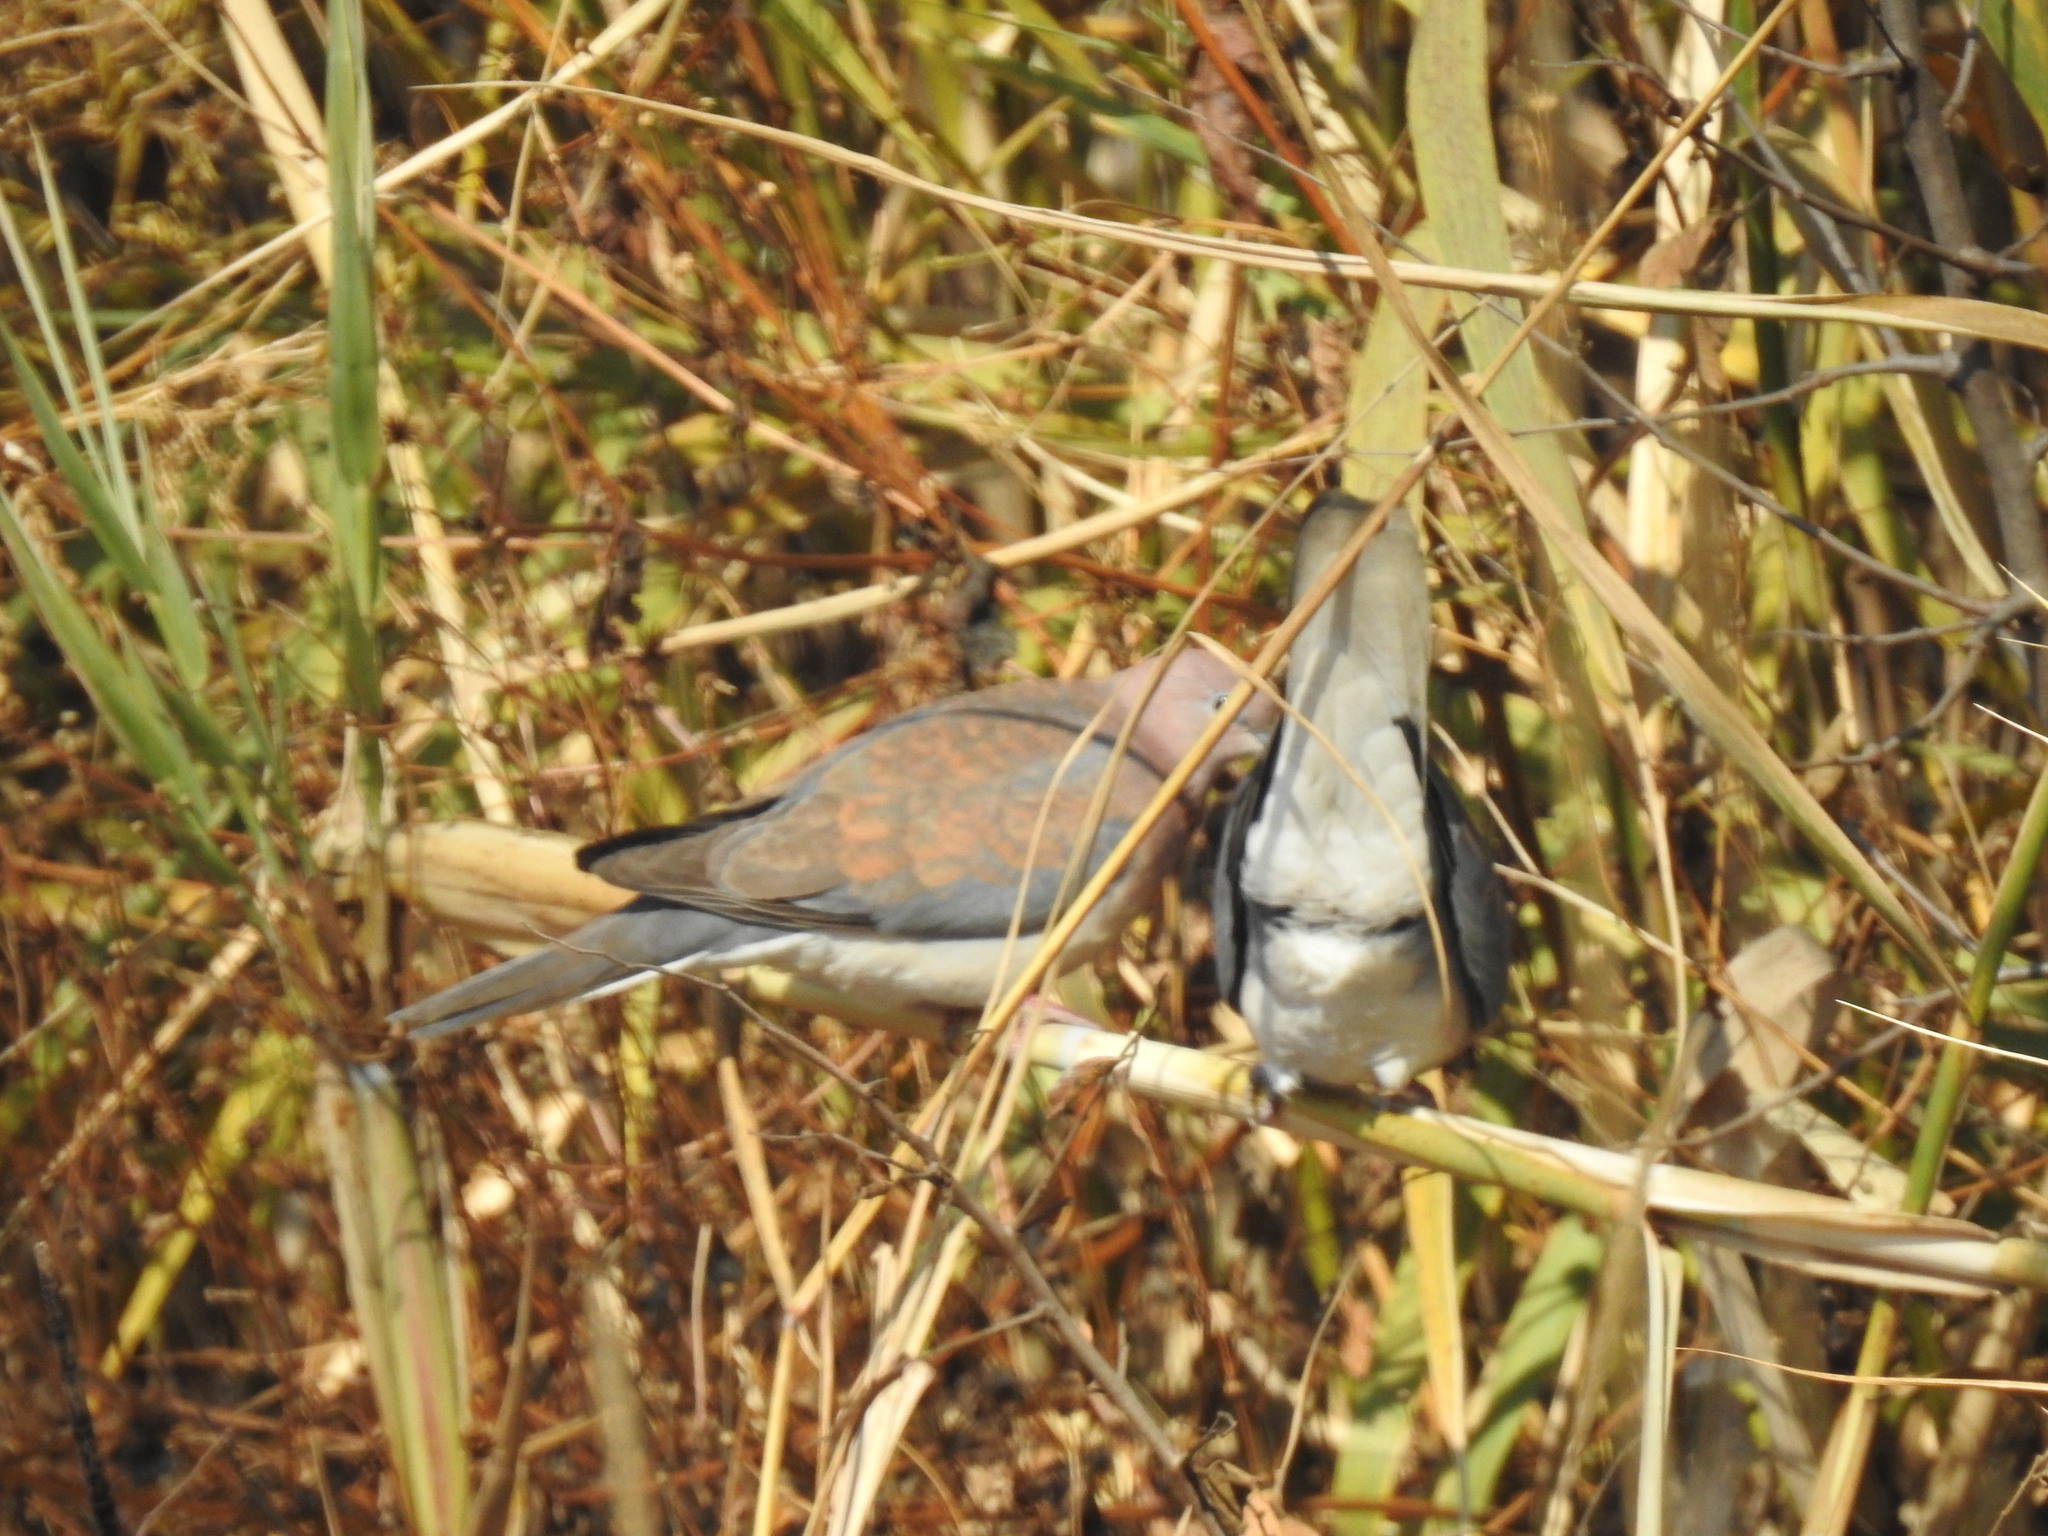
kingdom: Animalia
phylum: Chordata
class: Aves
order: Columbiformes
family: Columbidae
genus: Spilopelia
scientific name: Spilopelia senegalensis
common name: Laughing dove
